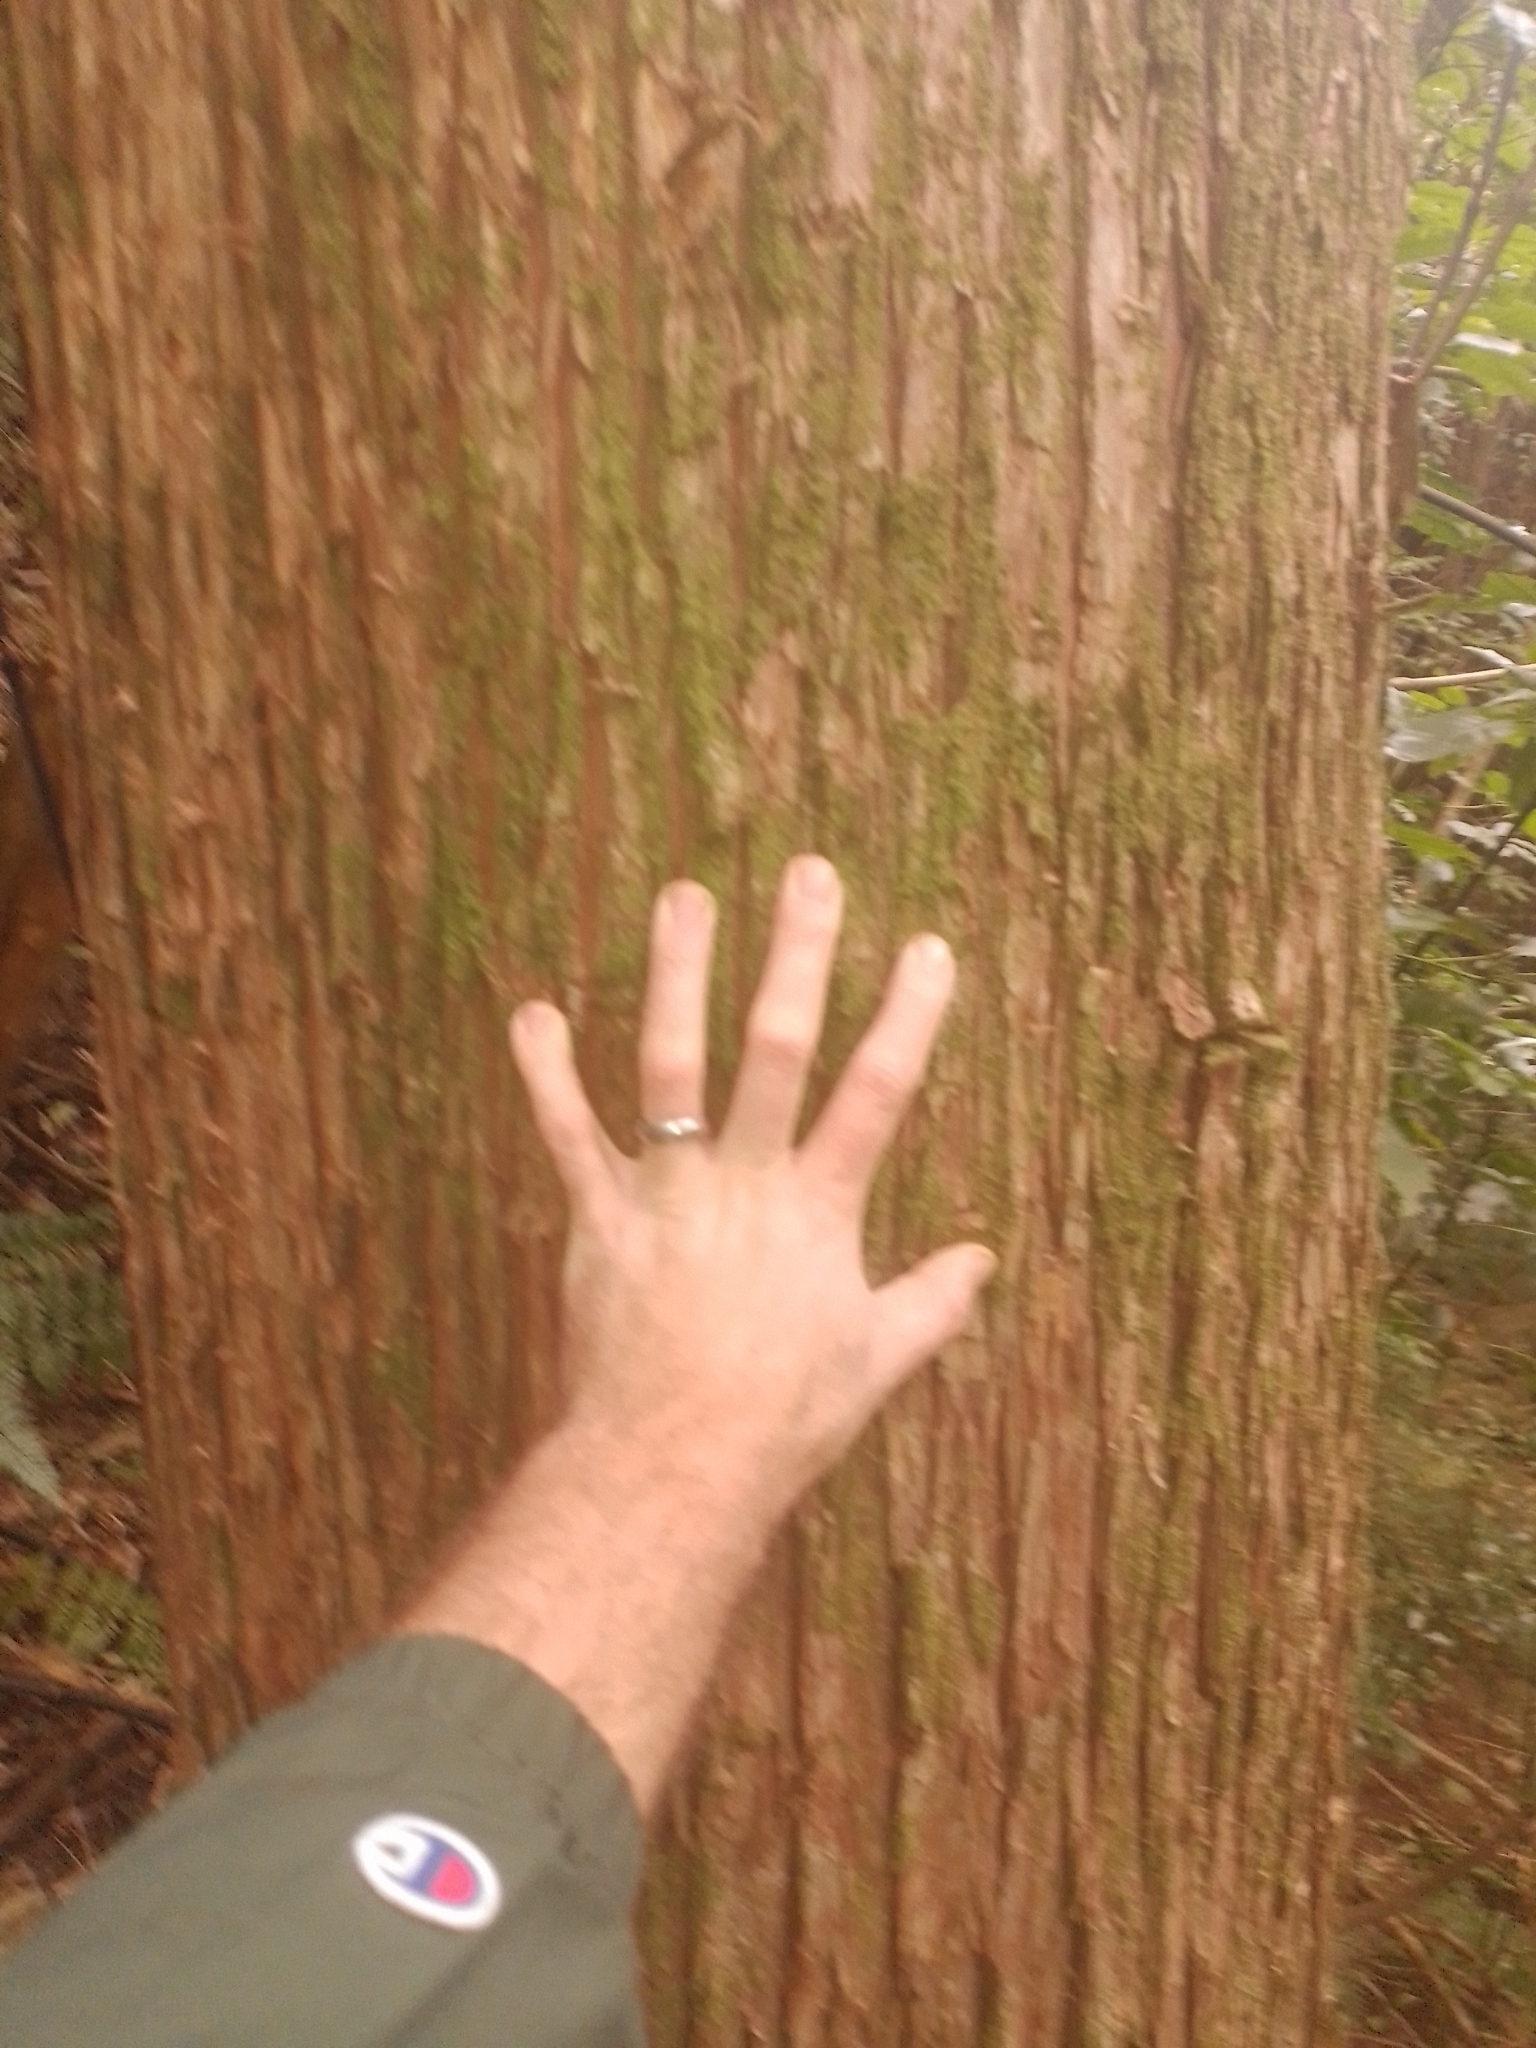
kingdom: Plantae
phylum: Tracheophyta
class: Pinopsida
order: Pinales
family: Podocarpaceae
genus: Podocarpus
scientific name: Podocarpus totara
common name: Totara
